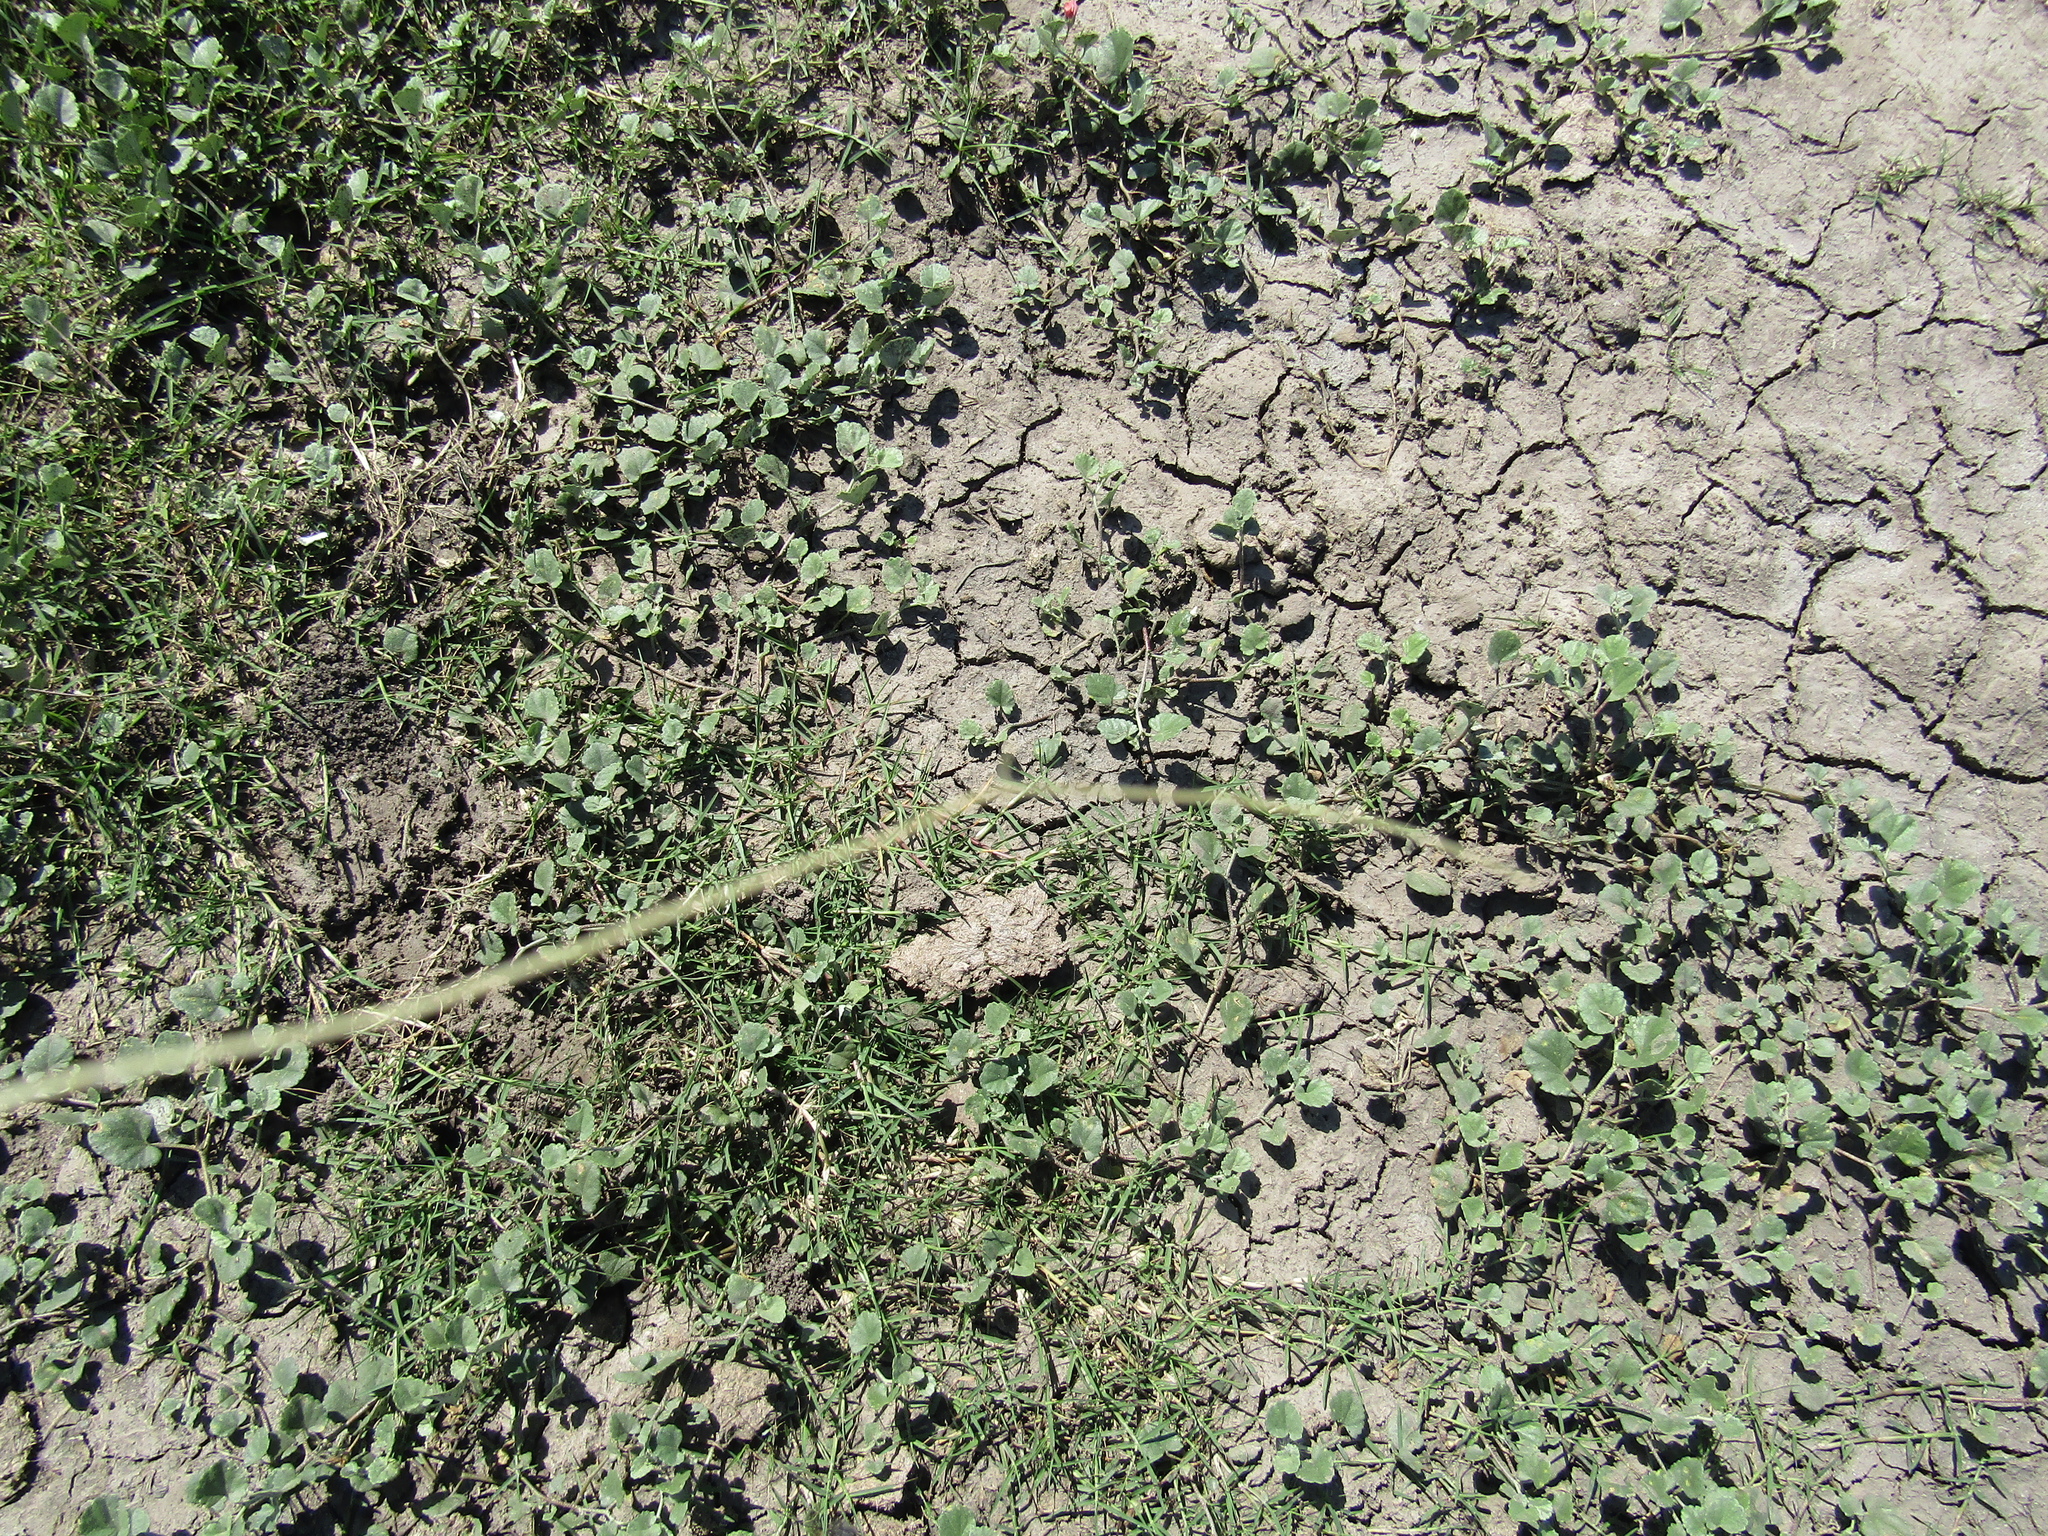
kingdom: Plantae
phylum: Tracheophyta
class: Magnoliopsida
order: Malvales
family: Malvaceae
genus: Malvella
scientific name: Malvella leprosa
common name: Alkali-mallow
